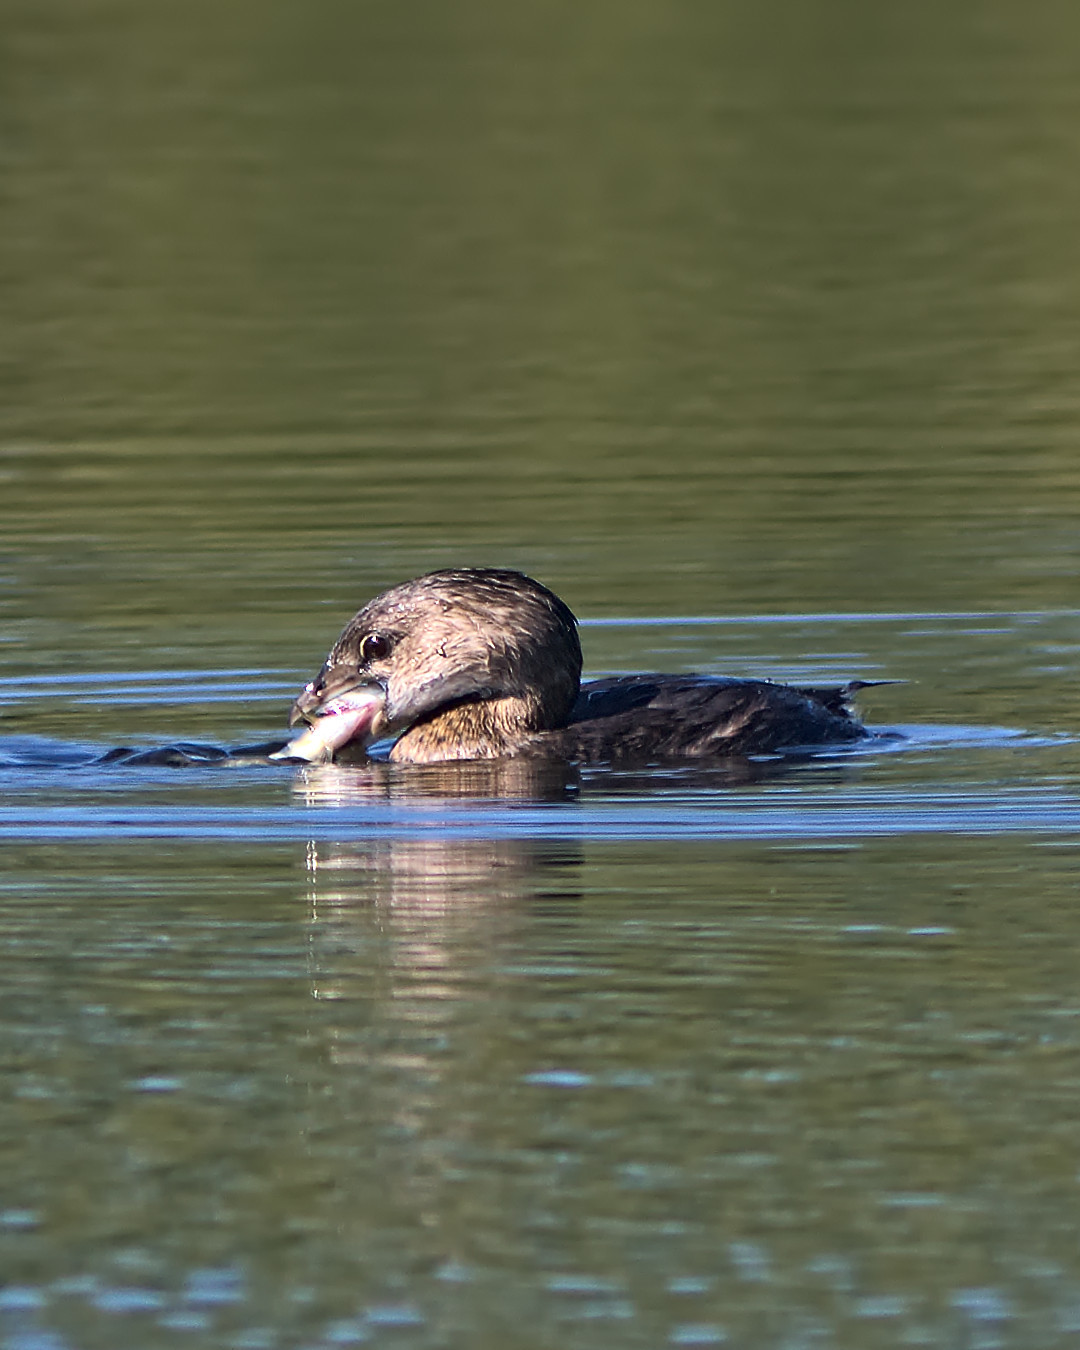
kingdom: Animalia
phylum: Chordata
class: Aves
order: Podicipediformes
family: Podicipedidae
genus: Podilymbus
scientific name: Podilymbus podiceps
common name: Pied-billed grebe
